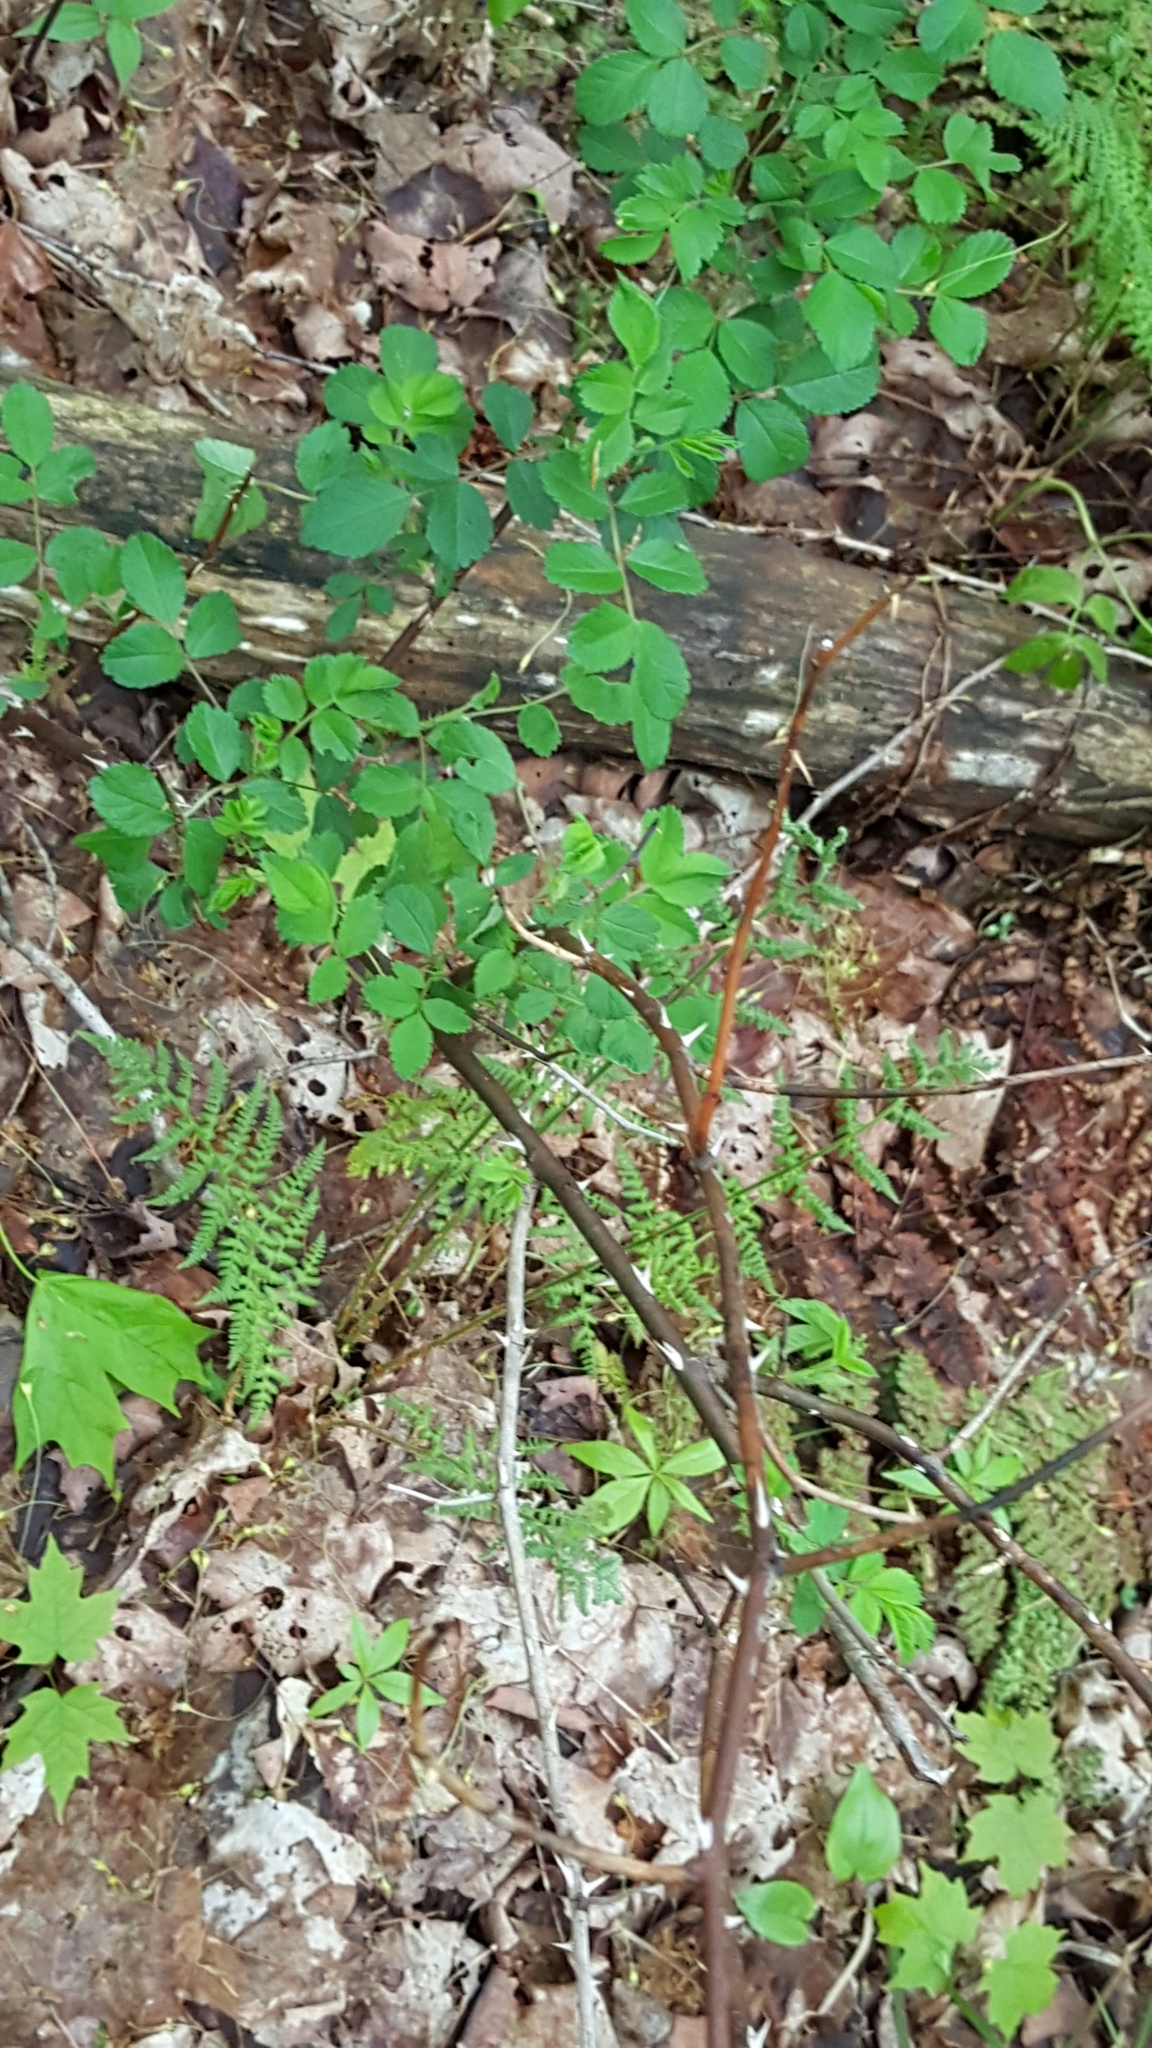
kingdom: Plantae
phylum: Tracheophyta
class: Magnoliopsida
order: Rosales
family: Rosaceae
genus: Rosa
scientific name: Rosa multiflora
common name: Multiflora rose
